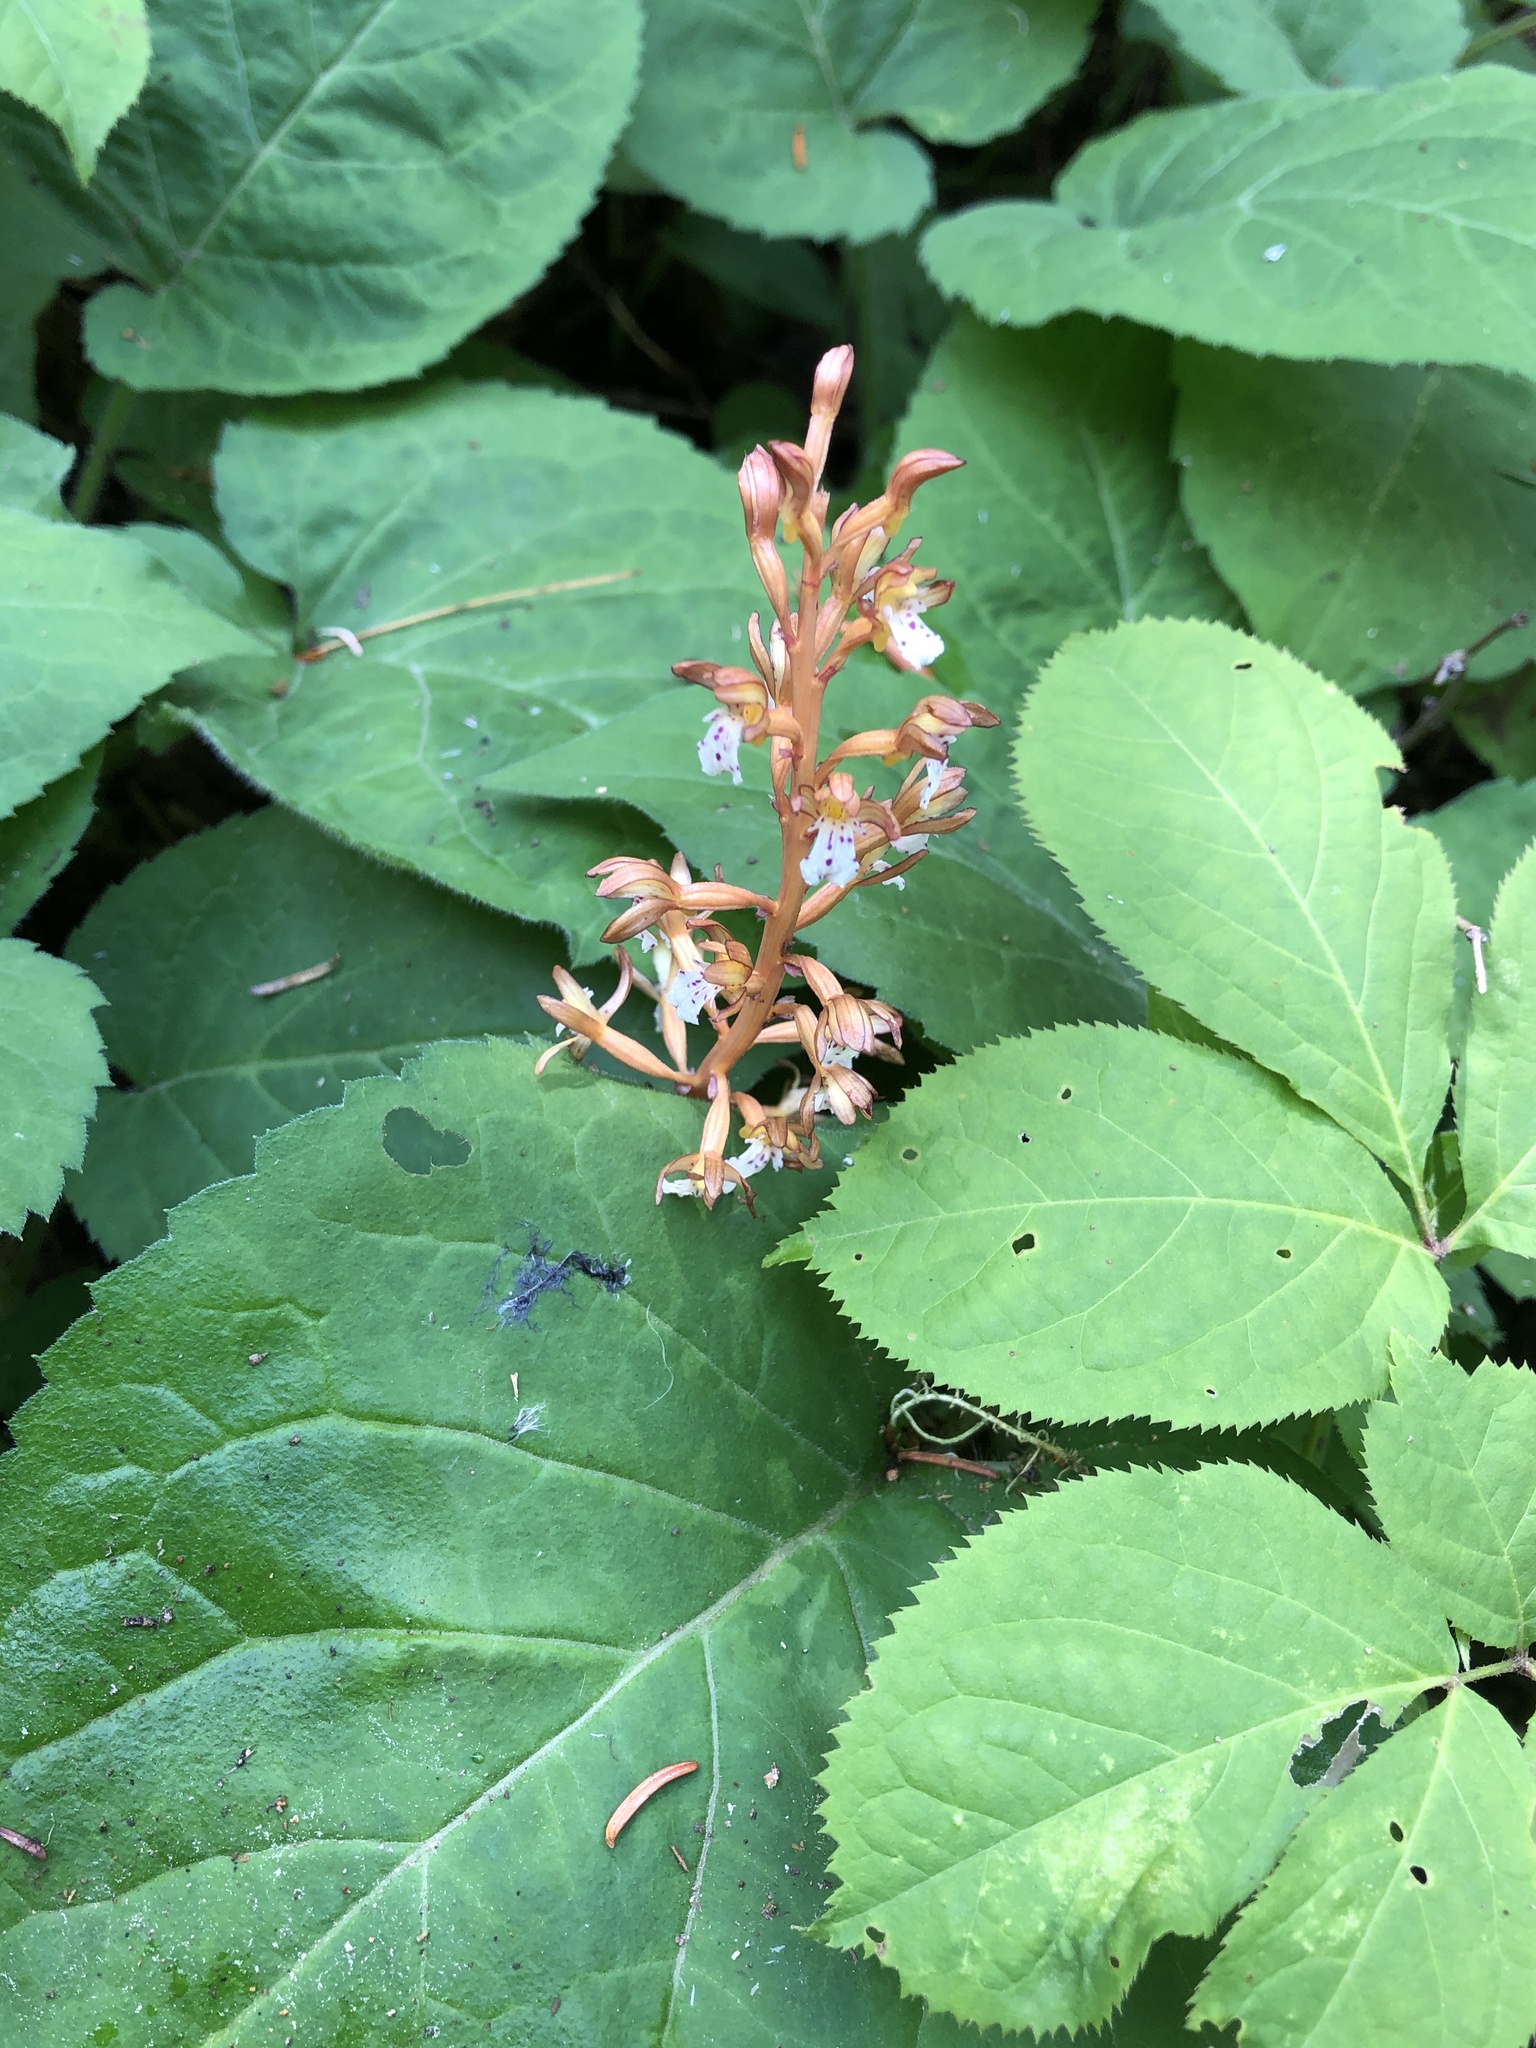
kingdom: Plantae
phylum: Tracheophyta
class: Liliopsida
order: Asparagales
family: Orchidaceae
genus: Corallorhiza
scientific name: Corallorhiza maculata
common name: Spotted coralroot
